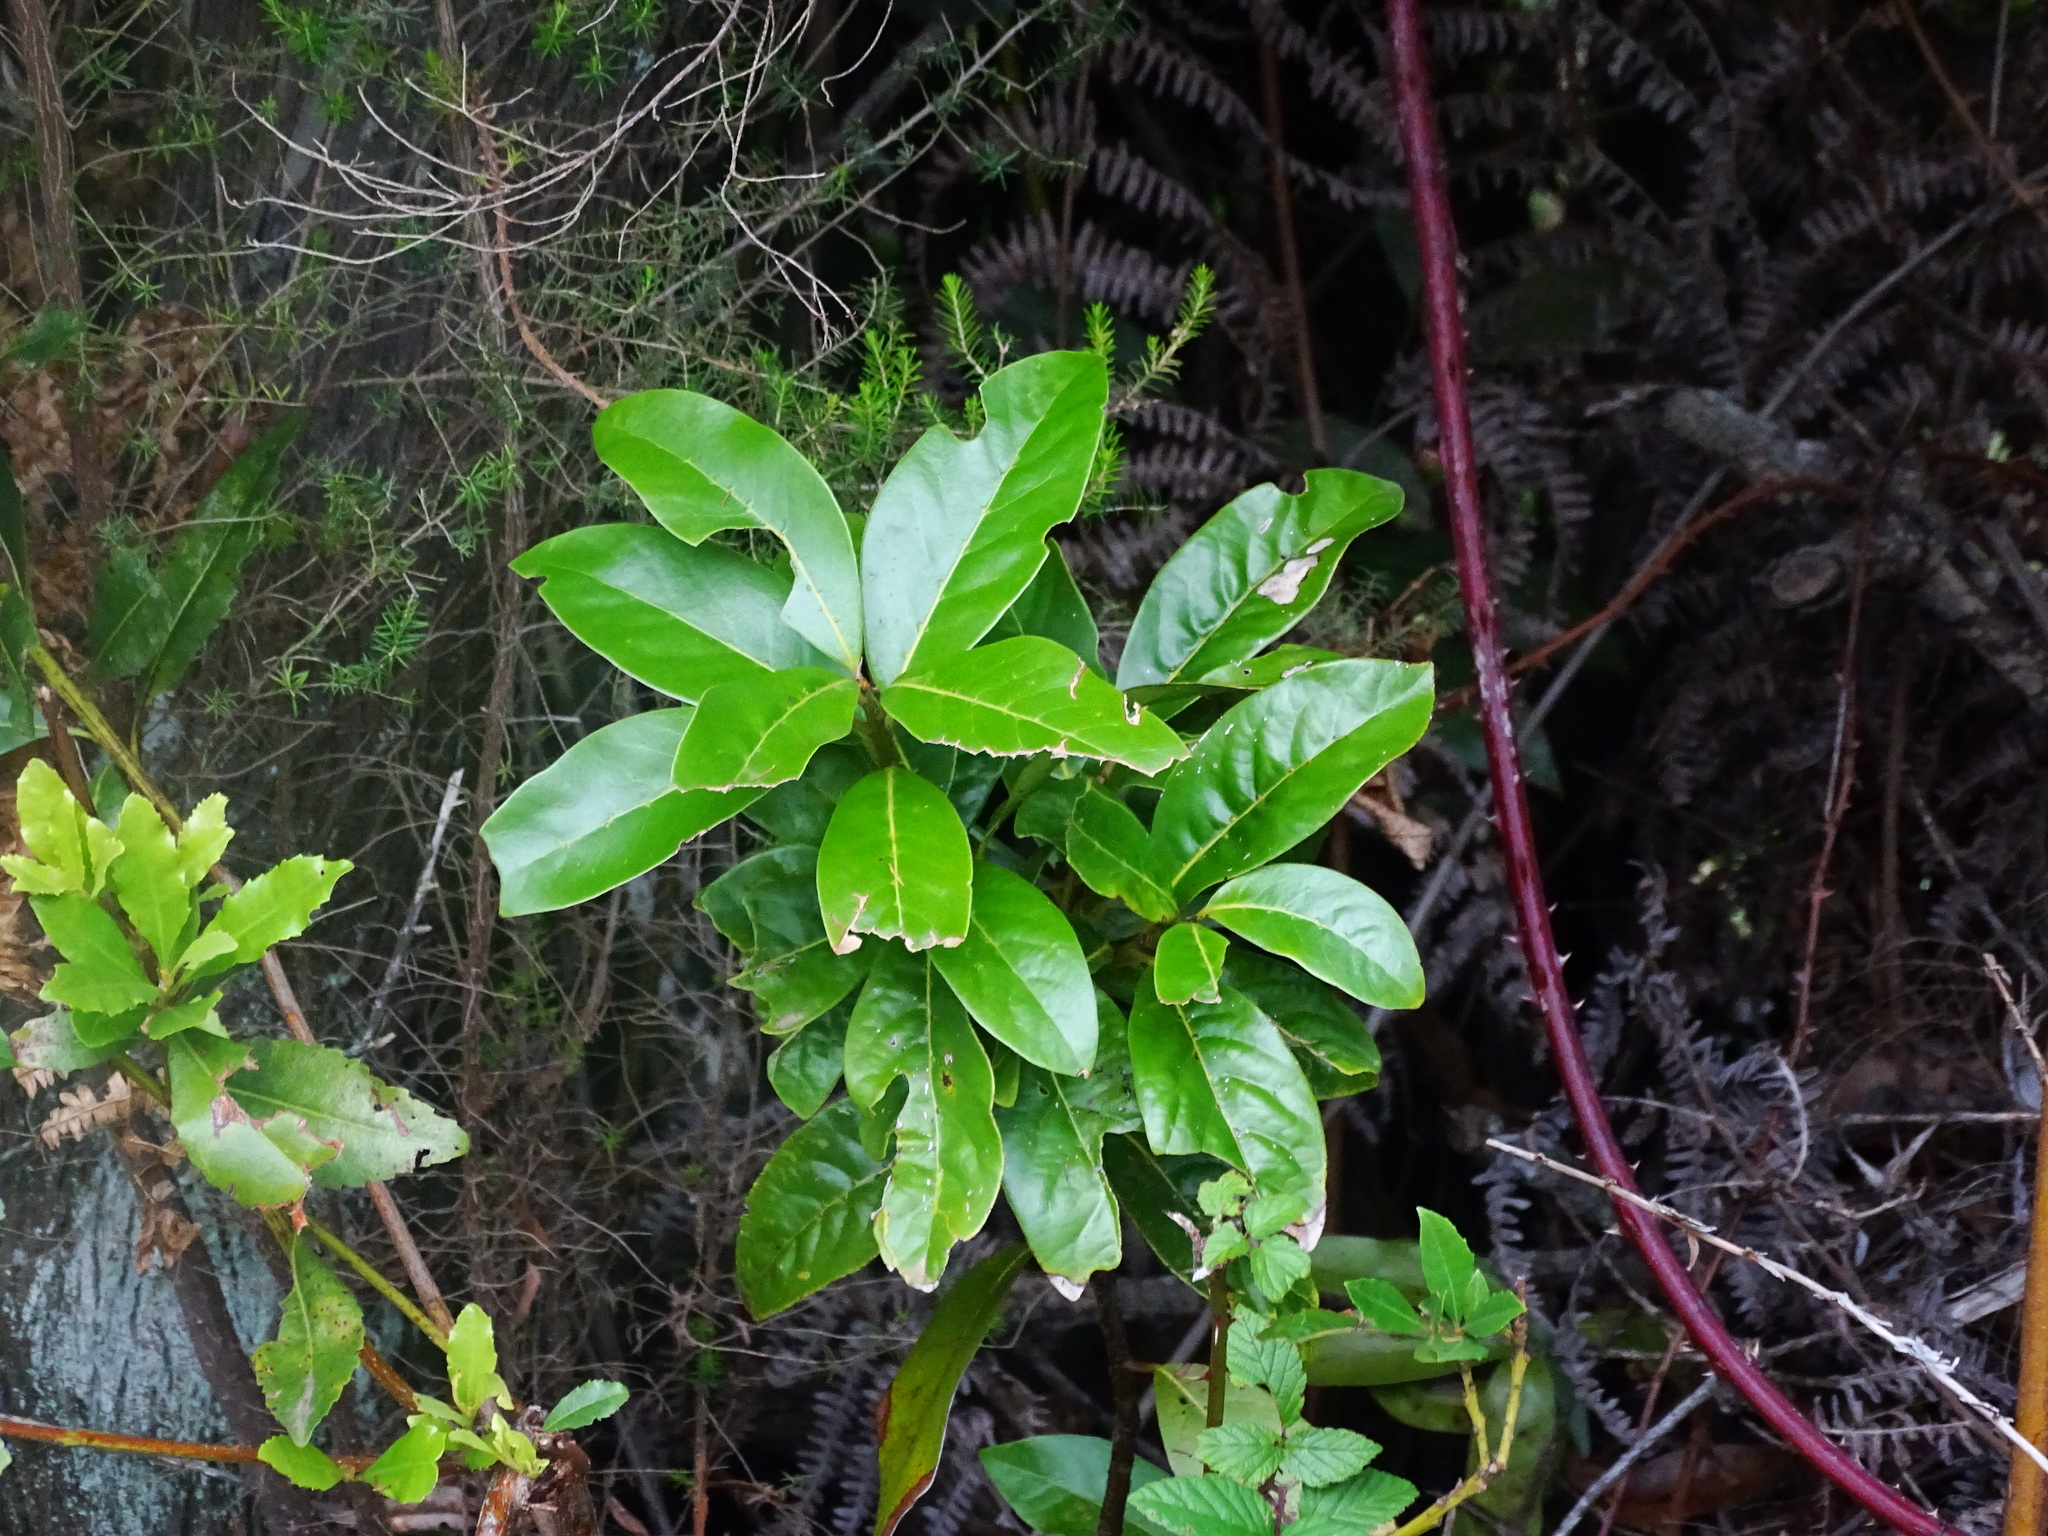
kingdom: Plantae
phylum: Tracheophyta
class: Magnoliopsida
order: Laurales
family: Lauraceae
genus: Laurus
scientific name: Laurus novocanariensis
